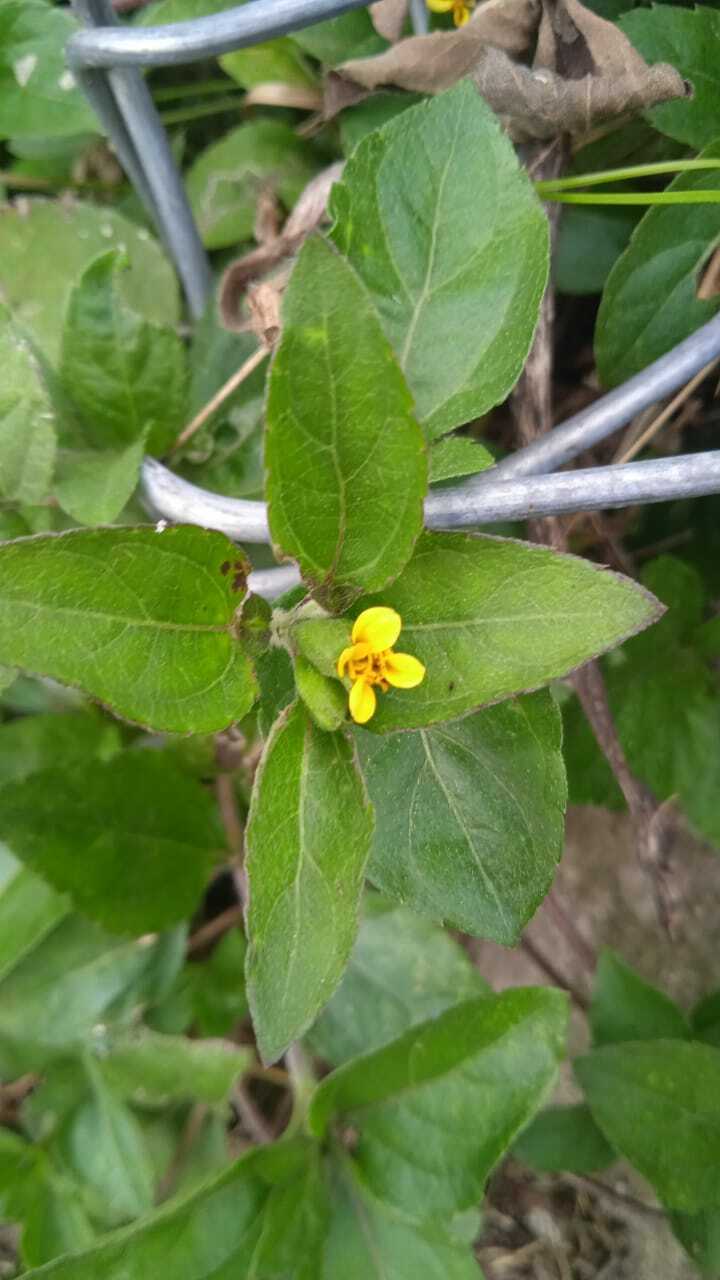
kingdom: Plantae
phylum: Tracheophyta
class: Magnoliopsida
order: Asterales
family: Asteraceae
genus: Calyptocarpus
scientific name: Calyptocarpus vialis
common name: Straggler daisy
